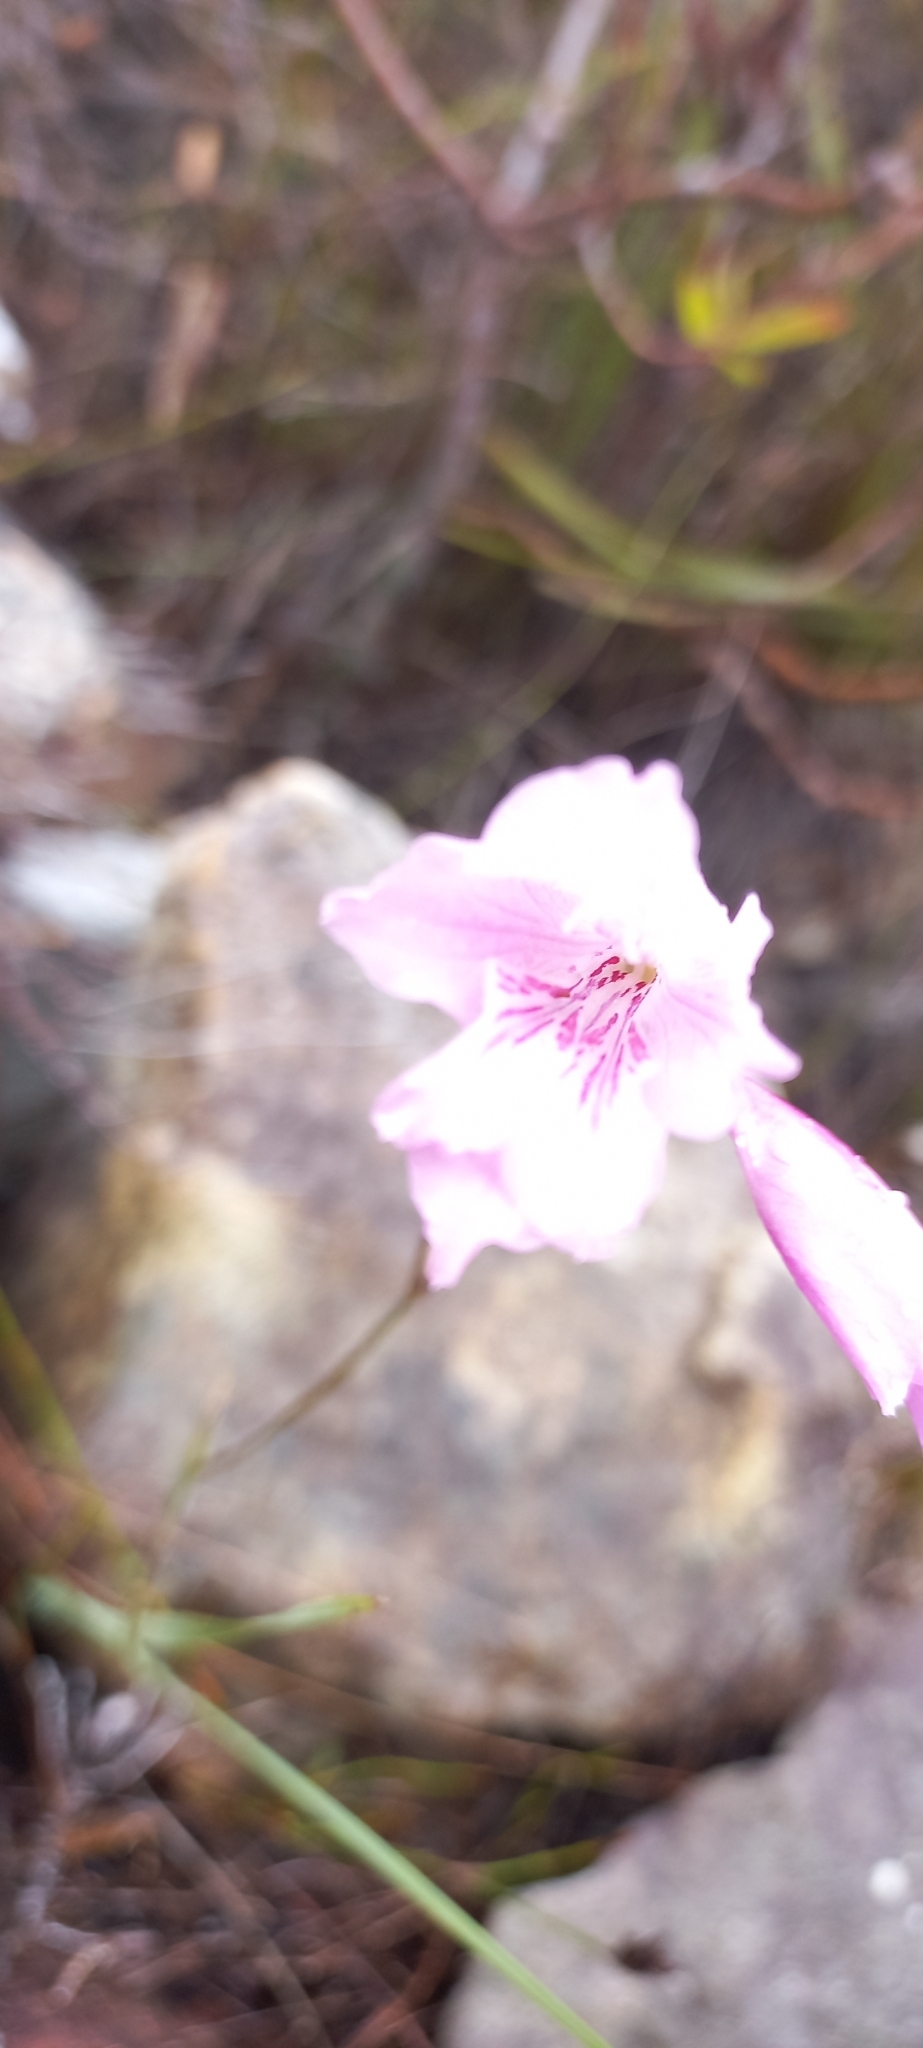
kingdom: Plantae
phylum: Tracheophyta
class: Liliopsida
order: Asparagales
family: Iridaceae
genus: Gladiolus
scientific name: Gladiolus hirsutus
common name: Small pink afrikaner
